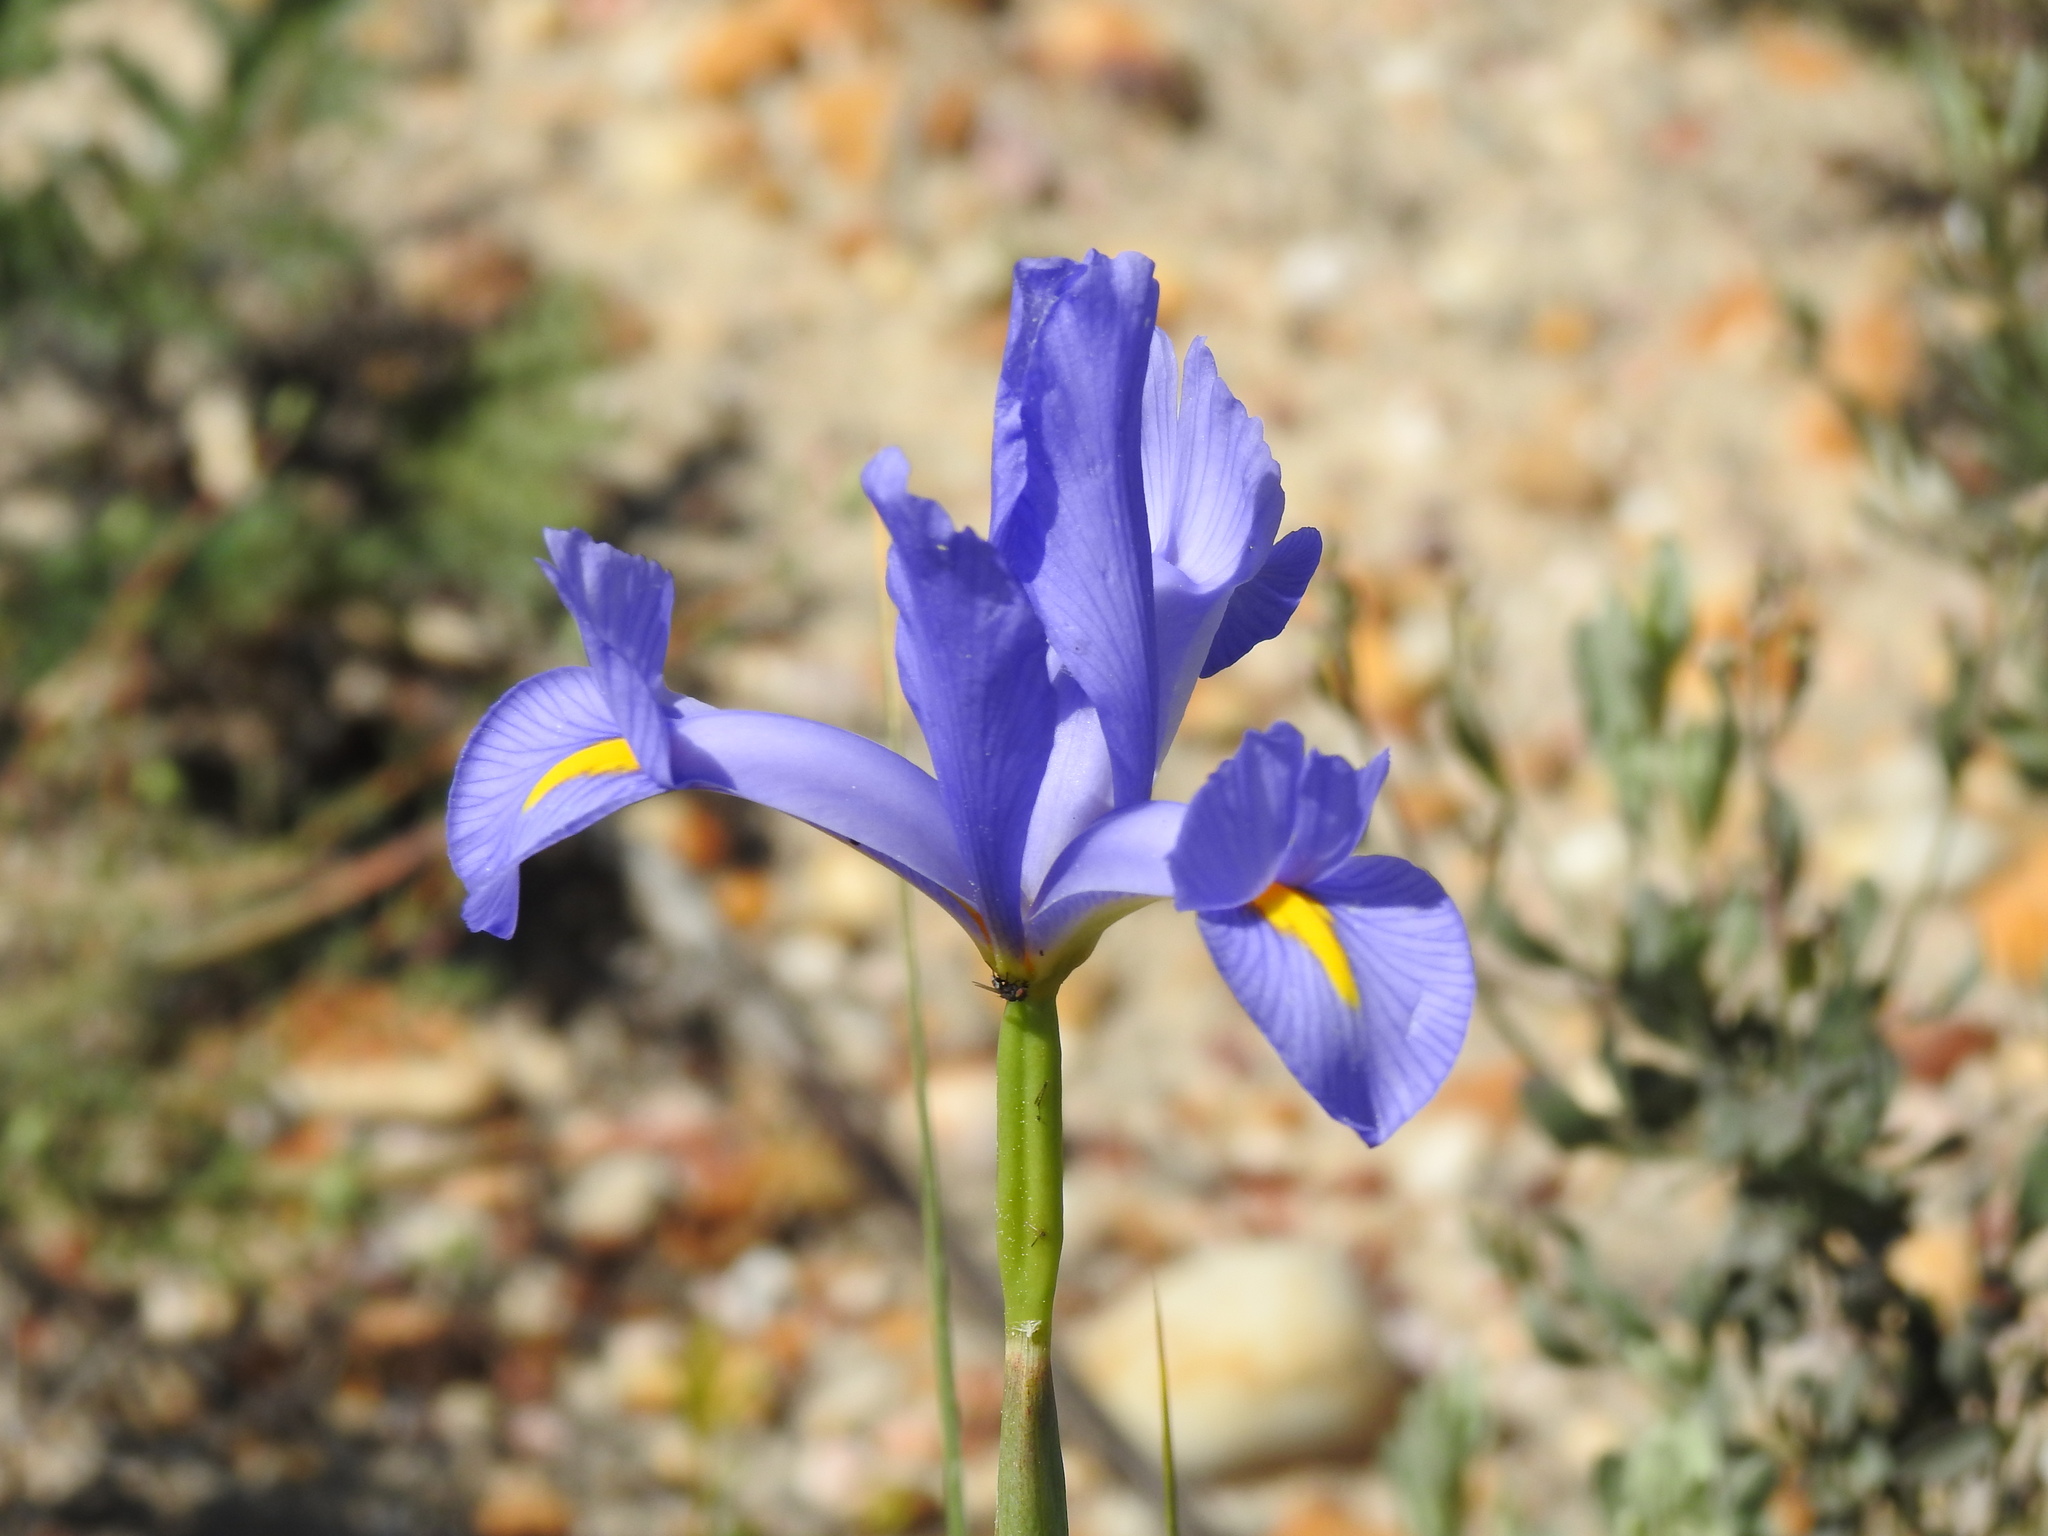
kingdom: Plantae
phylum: Tracheophyta
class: Liliopsida
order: Asparagales
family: Iridaceae
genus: Iris
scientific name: Iris xiphium
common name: Spanish iris
